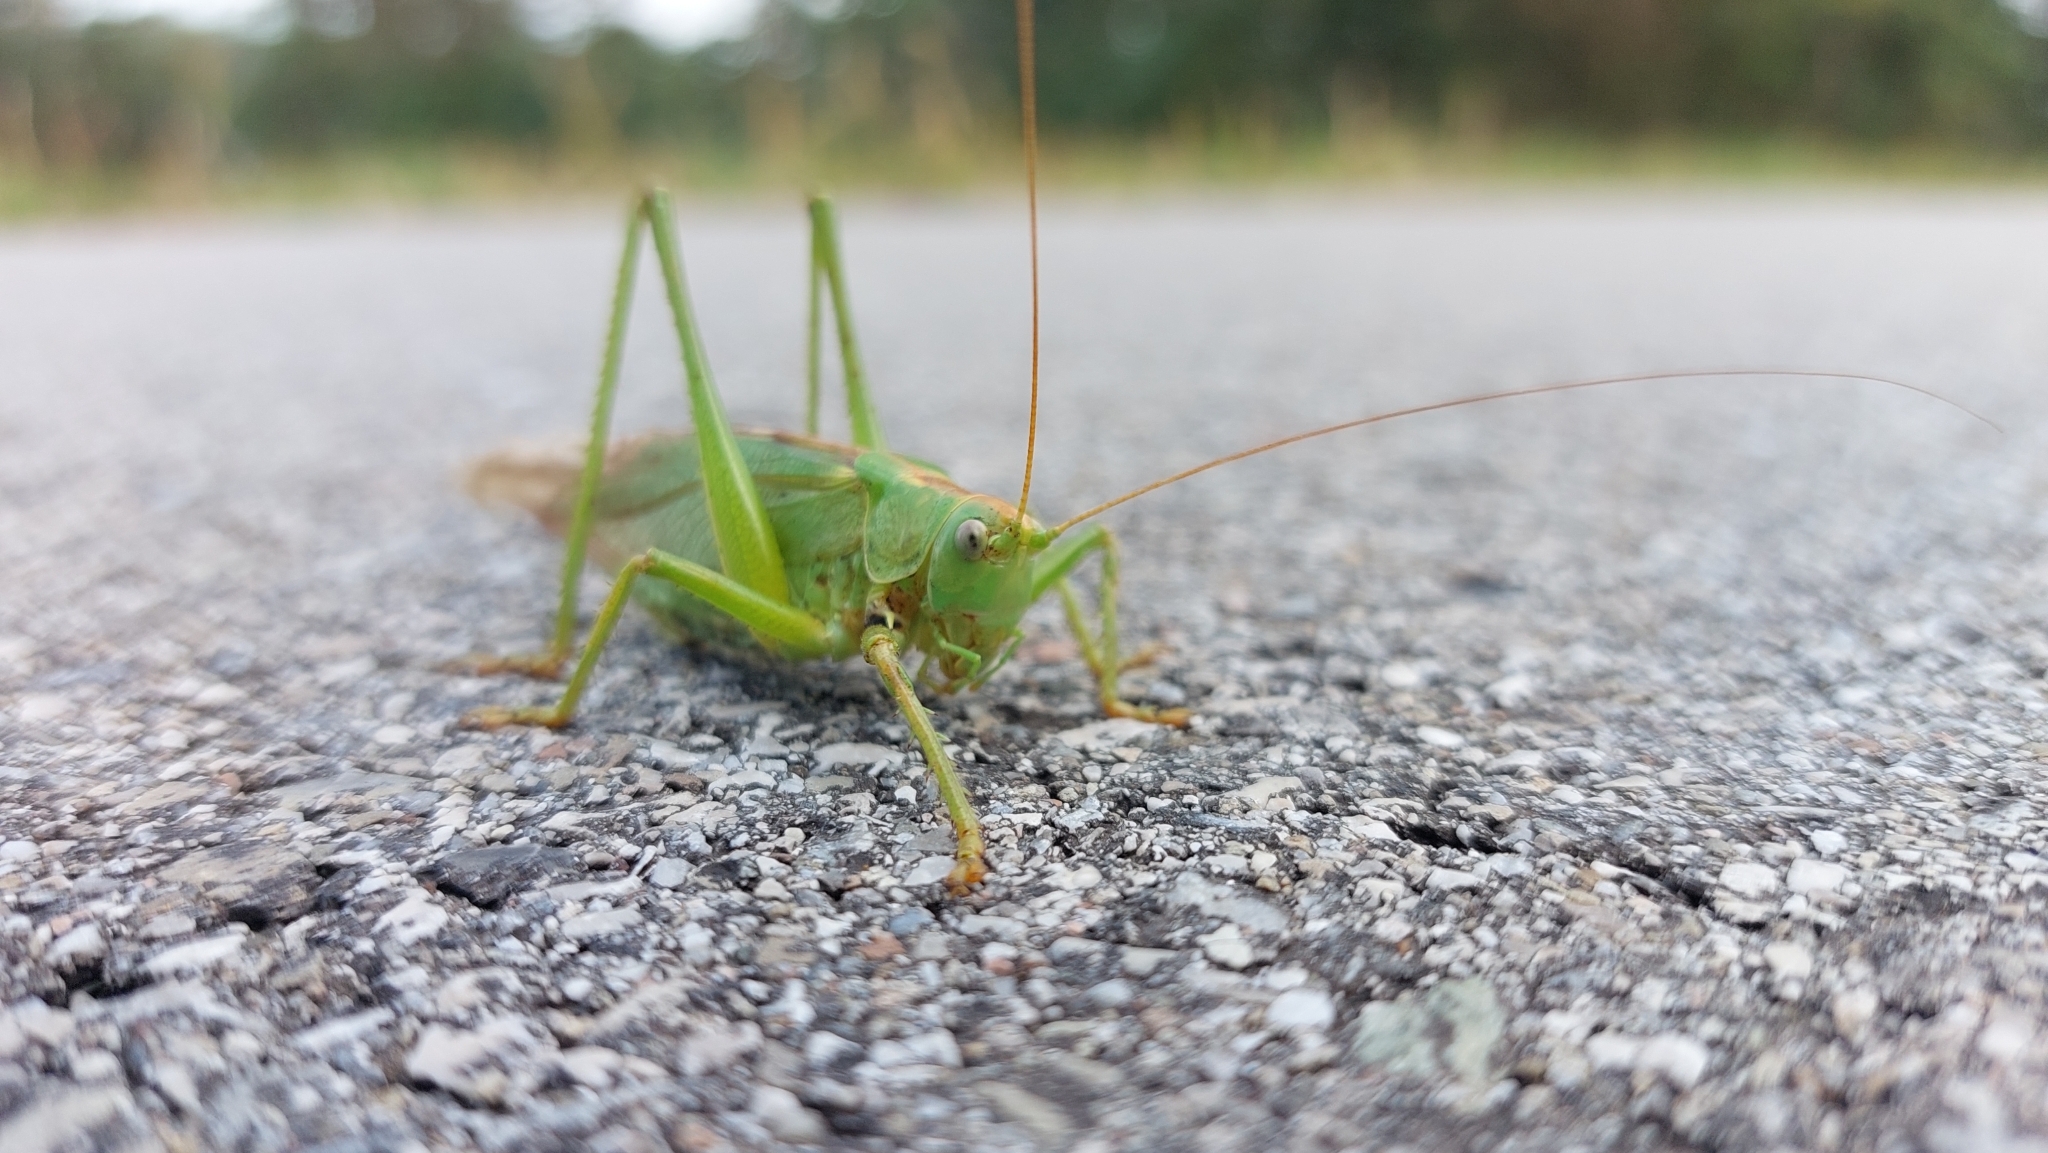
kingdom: Animalia
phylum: Arthropoda
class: Insecta
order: Orthoptera
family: Tettigoniidae
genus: Tettigonia
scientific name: Tettigonia viridissima
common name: Great green bush-cricket
